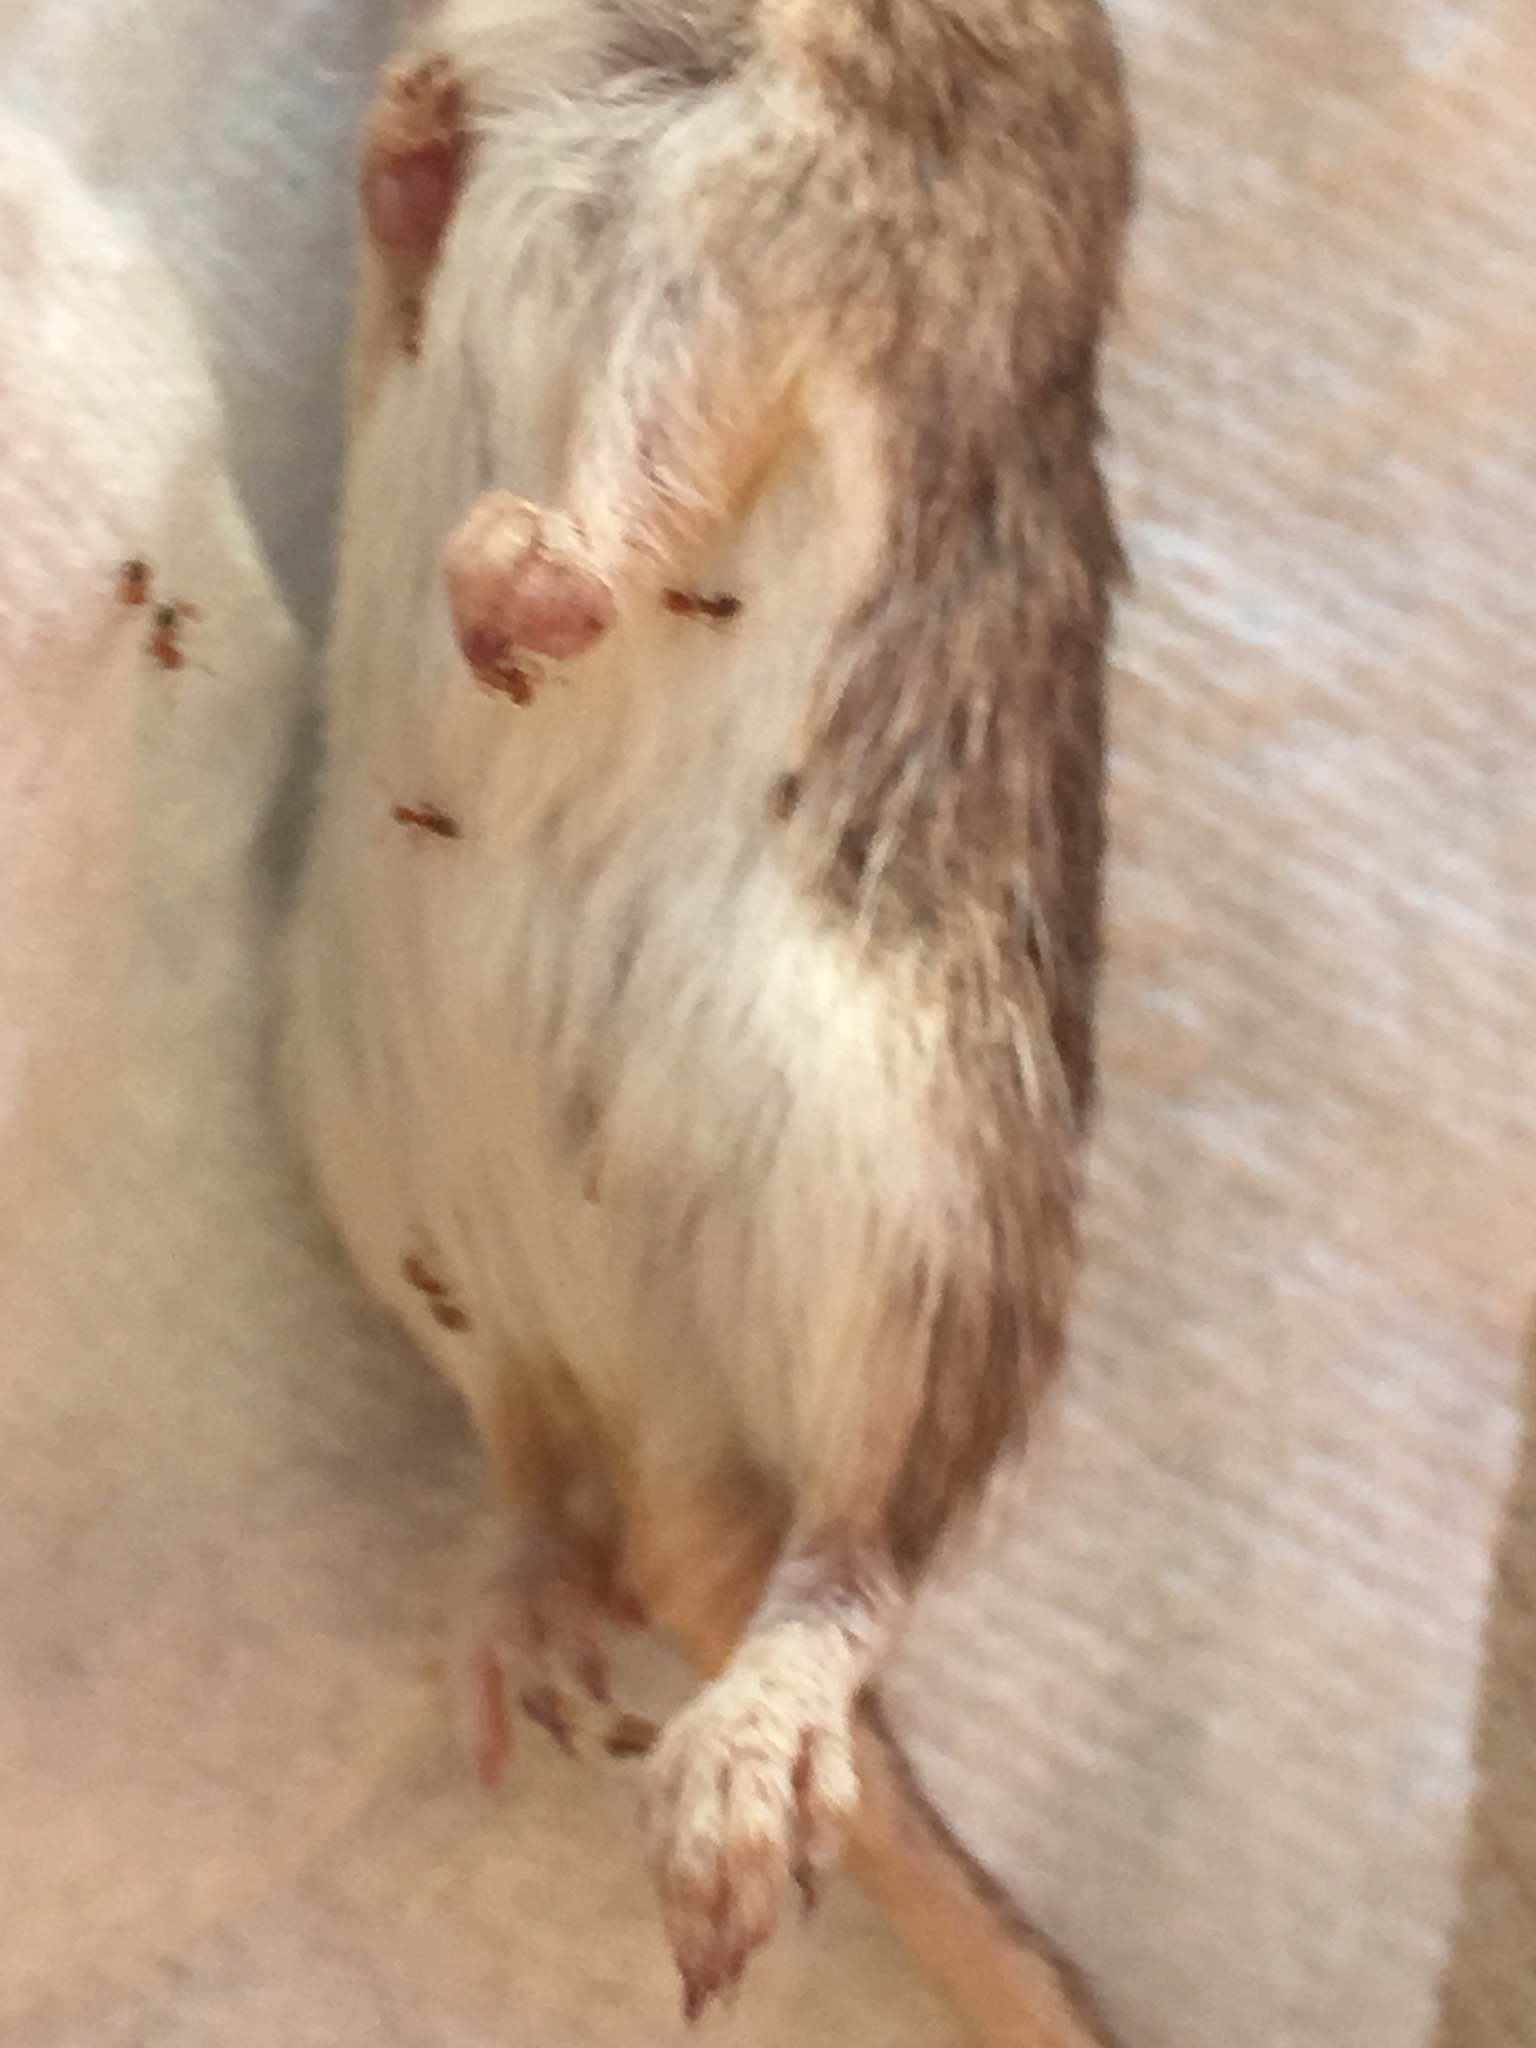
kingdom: Animalia
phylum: Chordata
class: Mammalia
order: Rodentia
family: Heteromyidae
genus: Chaetodipus
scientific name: Chaetodipus fallax
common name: San diego pocket mouse
